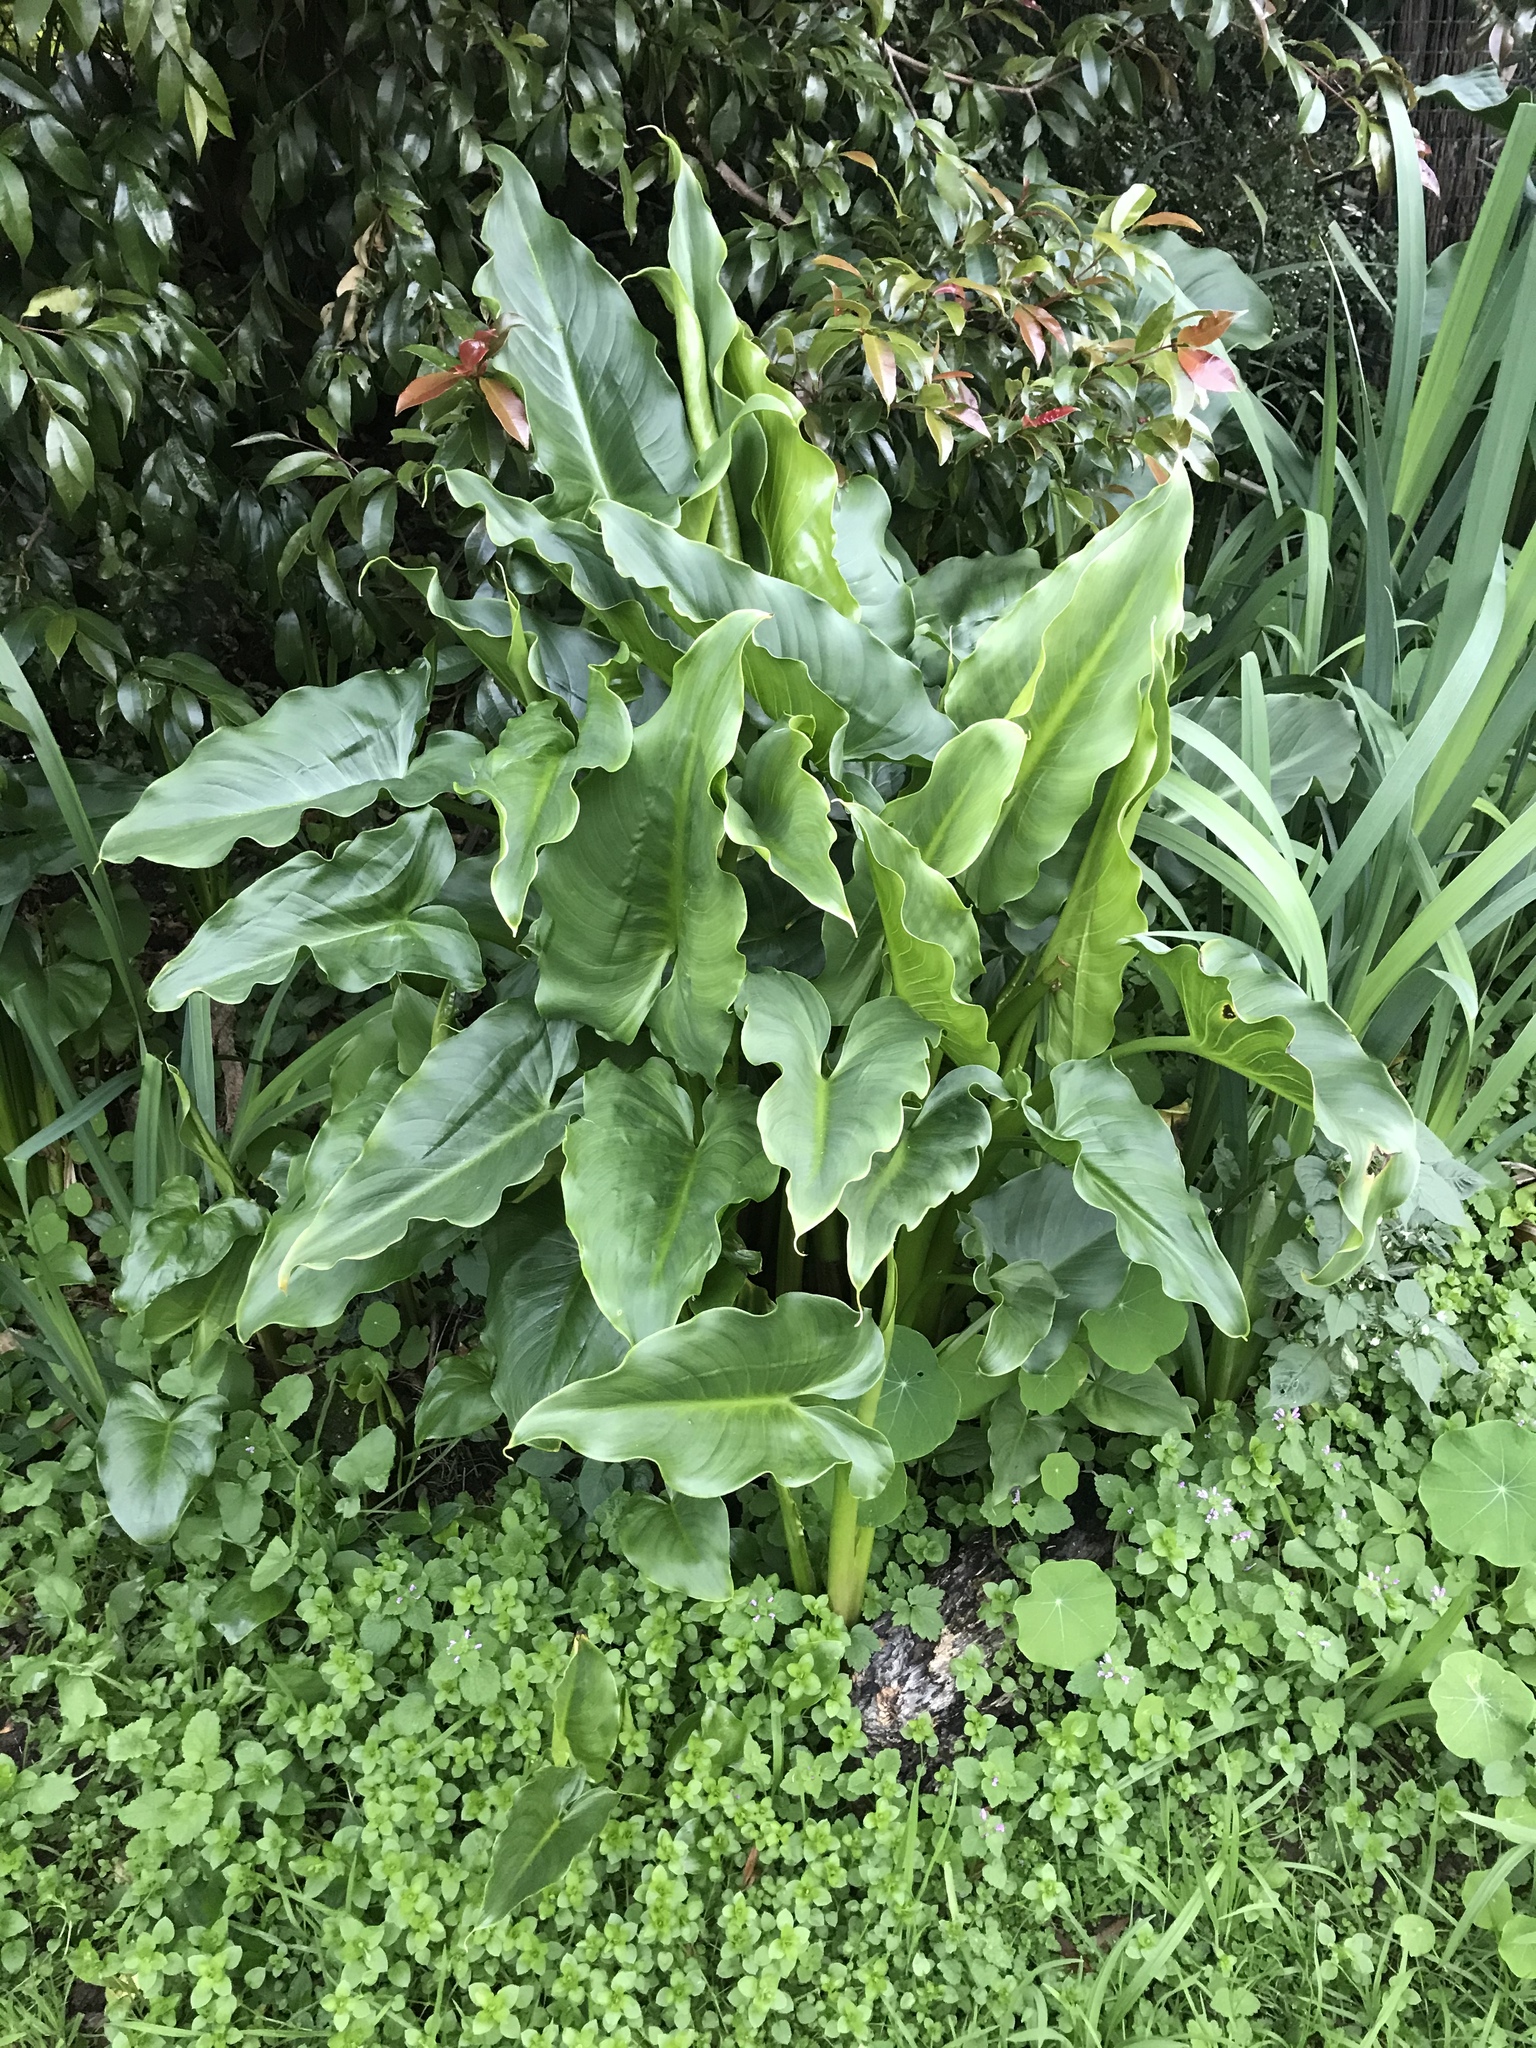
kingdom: Plantae
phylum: Tracheophyta
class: Liliopsida
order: Alismatales
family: Araceae
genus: Zantedeschia
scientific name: Zantedeschia aethiopica
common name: Altar-lily
